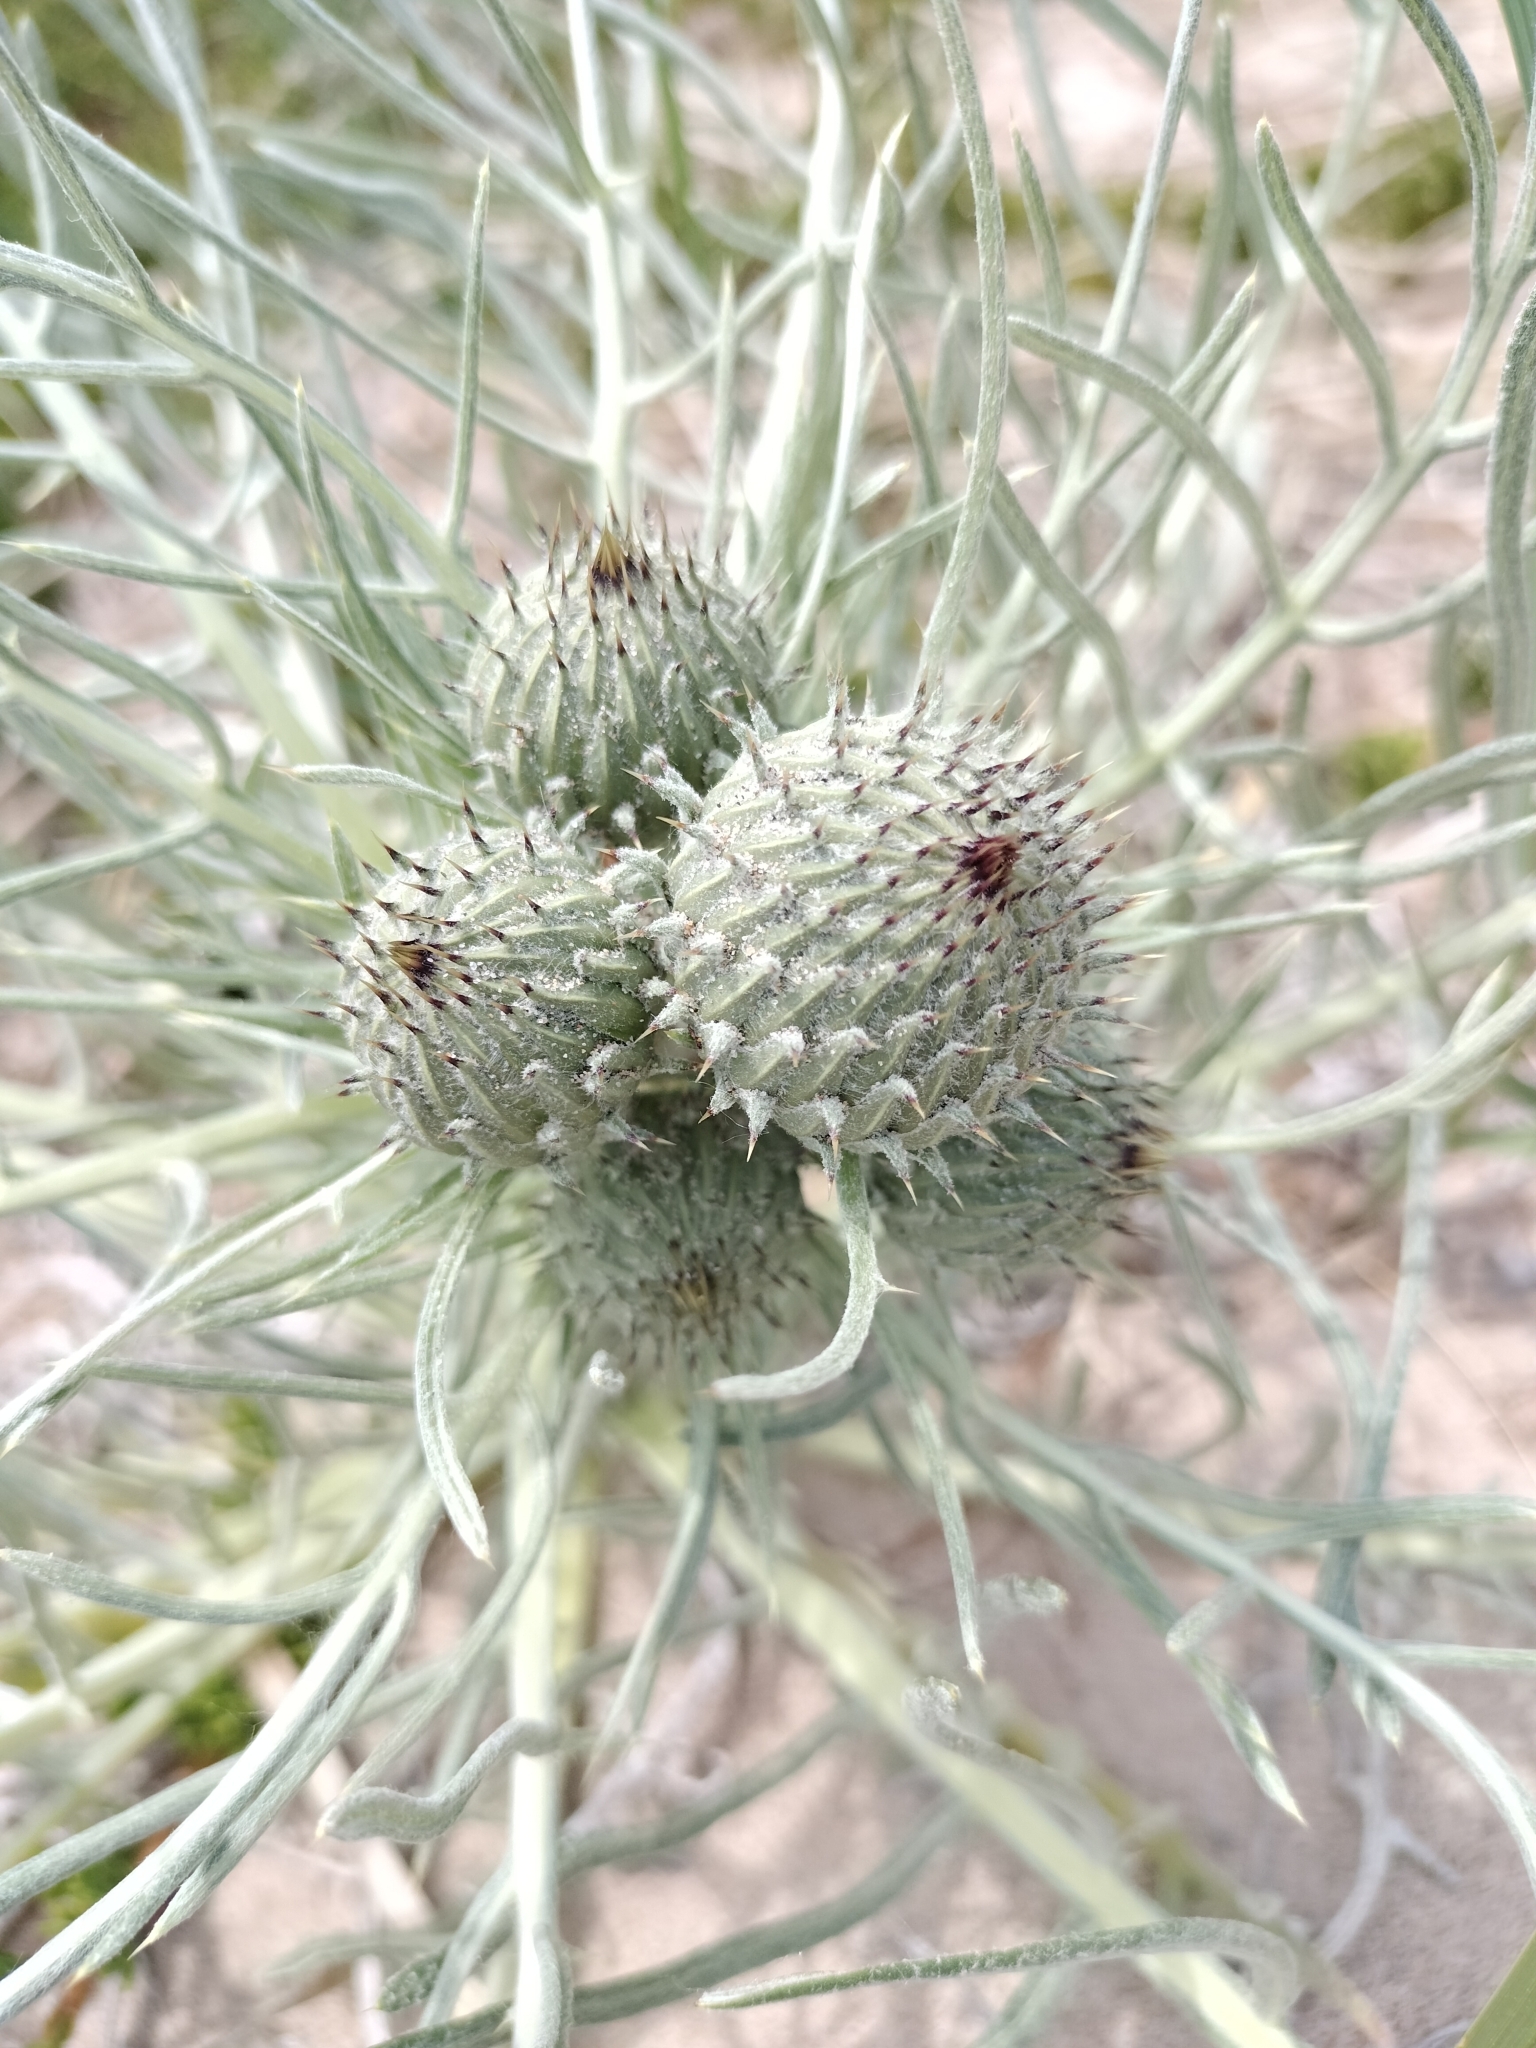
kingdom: Plantae
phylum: Tracheophyta
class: Magnoliopsida
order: Asterales
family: Asteraceae
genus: Cirsium
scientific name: Cirsium pitcheri
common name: Dune thistle
